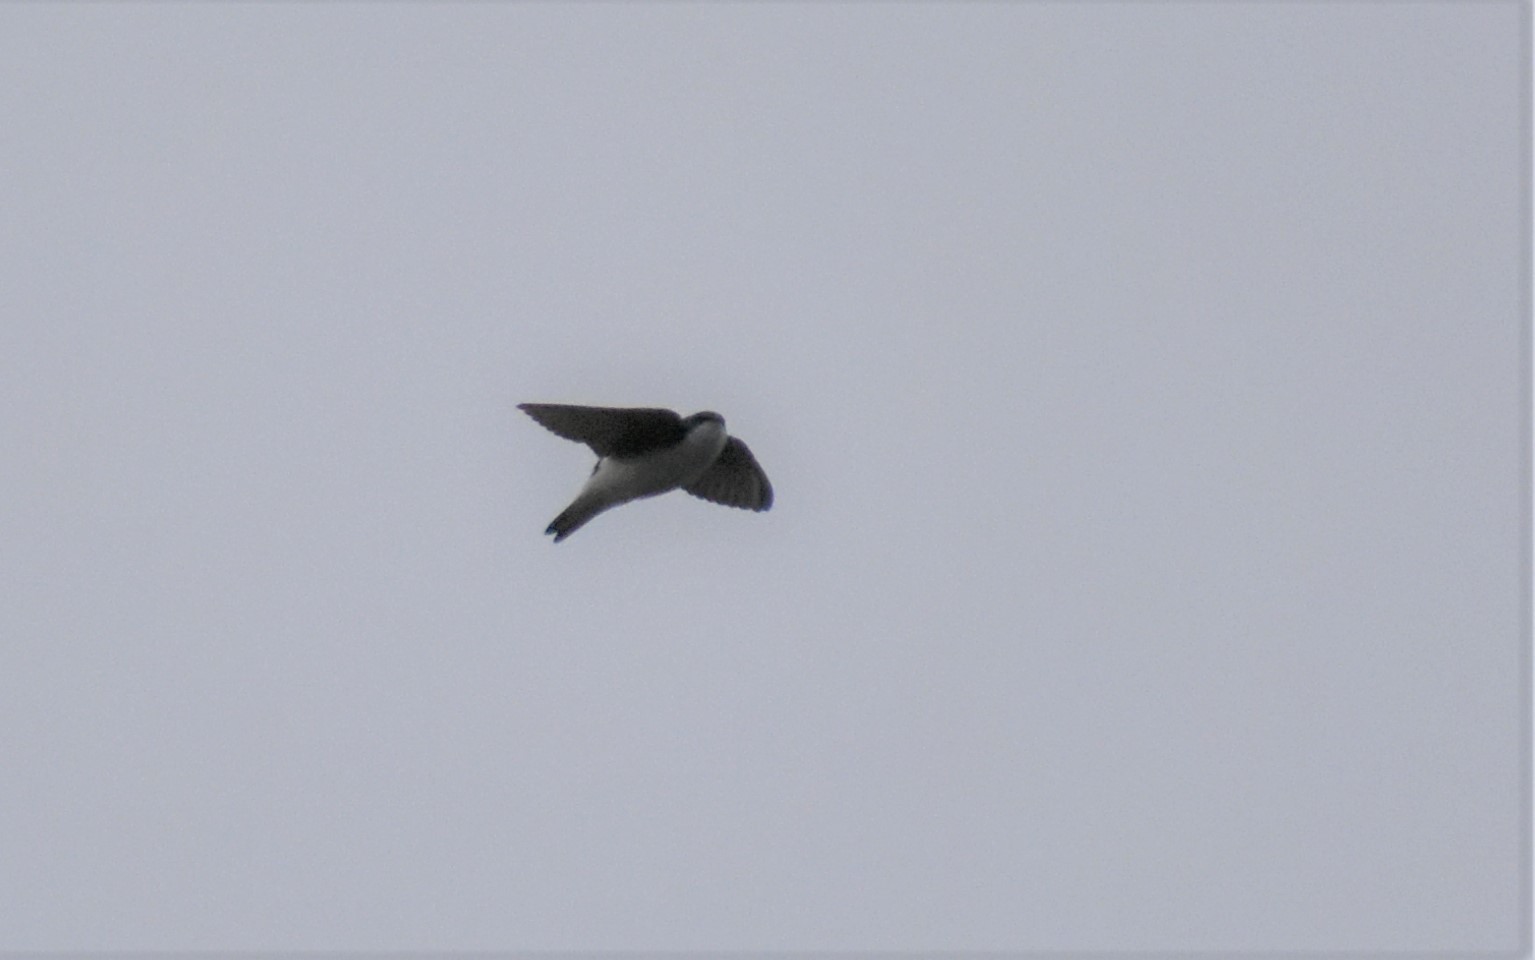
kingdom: Animalia
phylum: Chordata
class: Aves
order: Passeriformes
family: Hirundinidae
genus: Tachycineta
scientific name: Tachycineta bicolor
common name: Tree swallow
